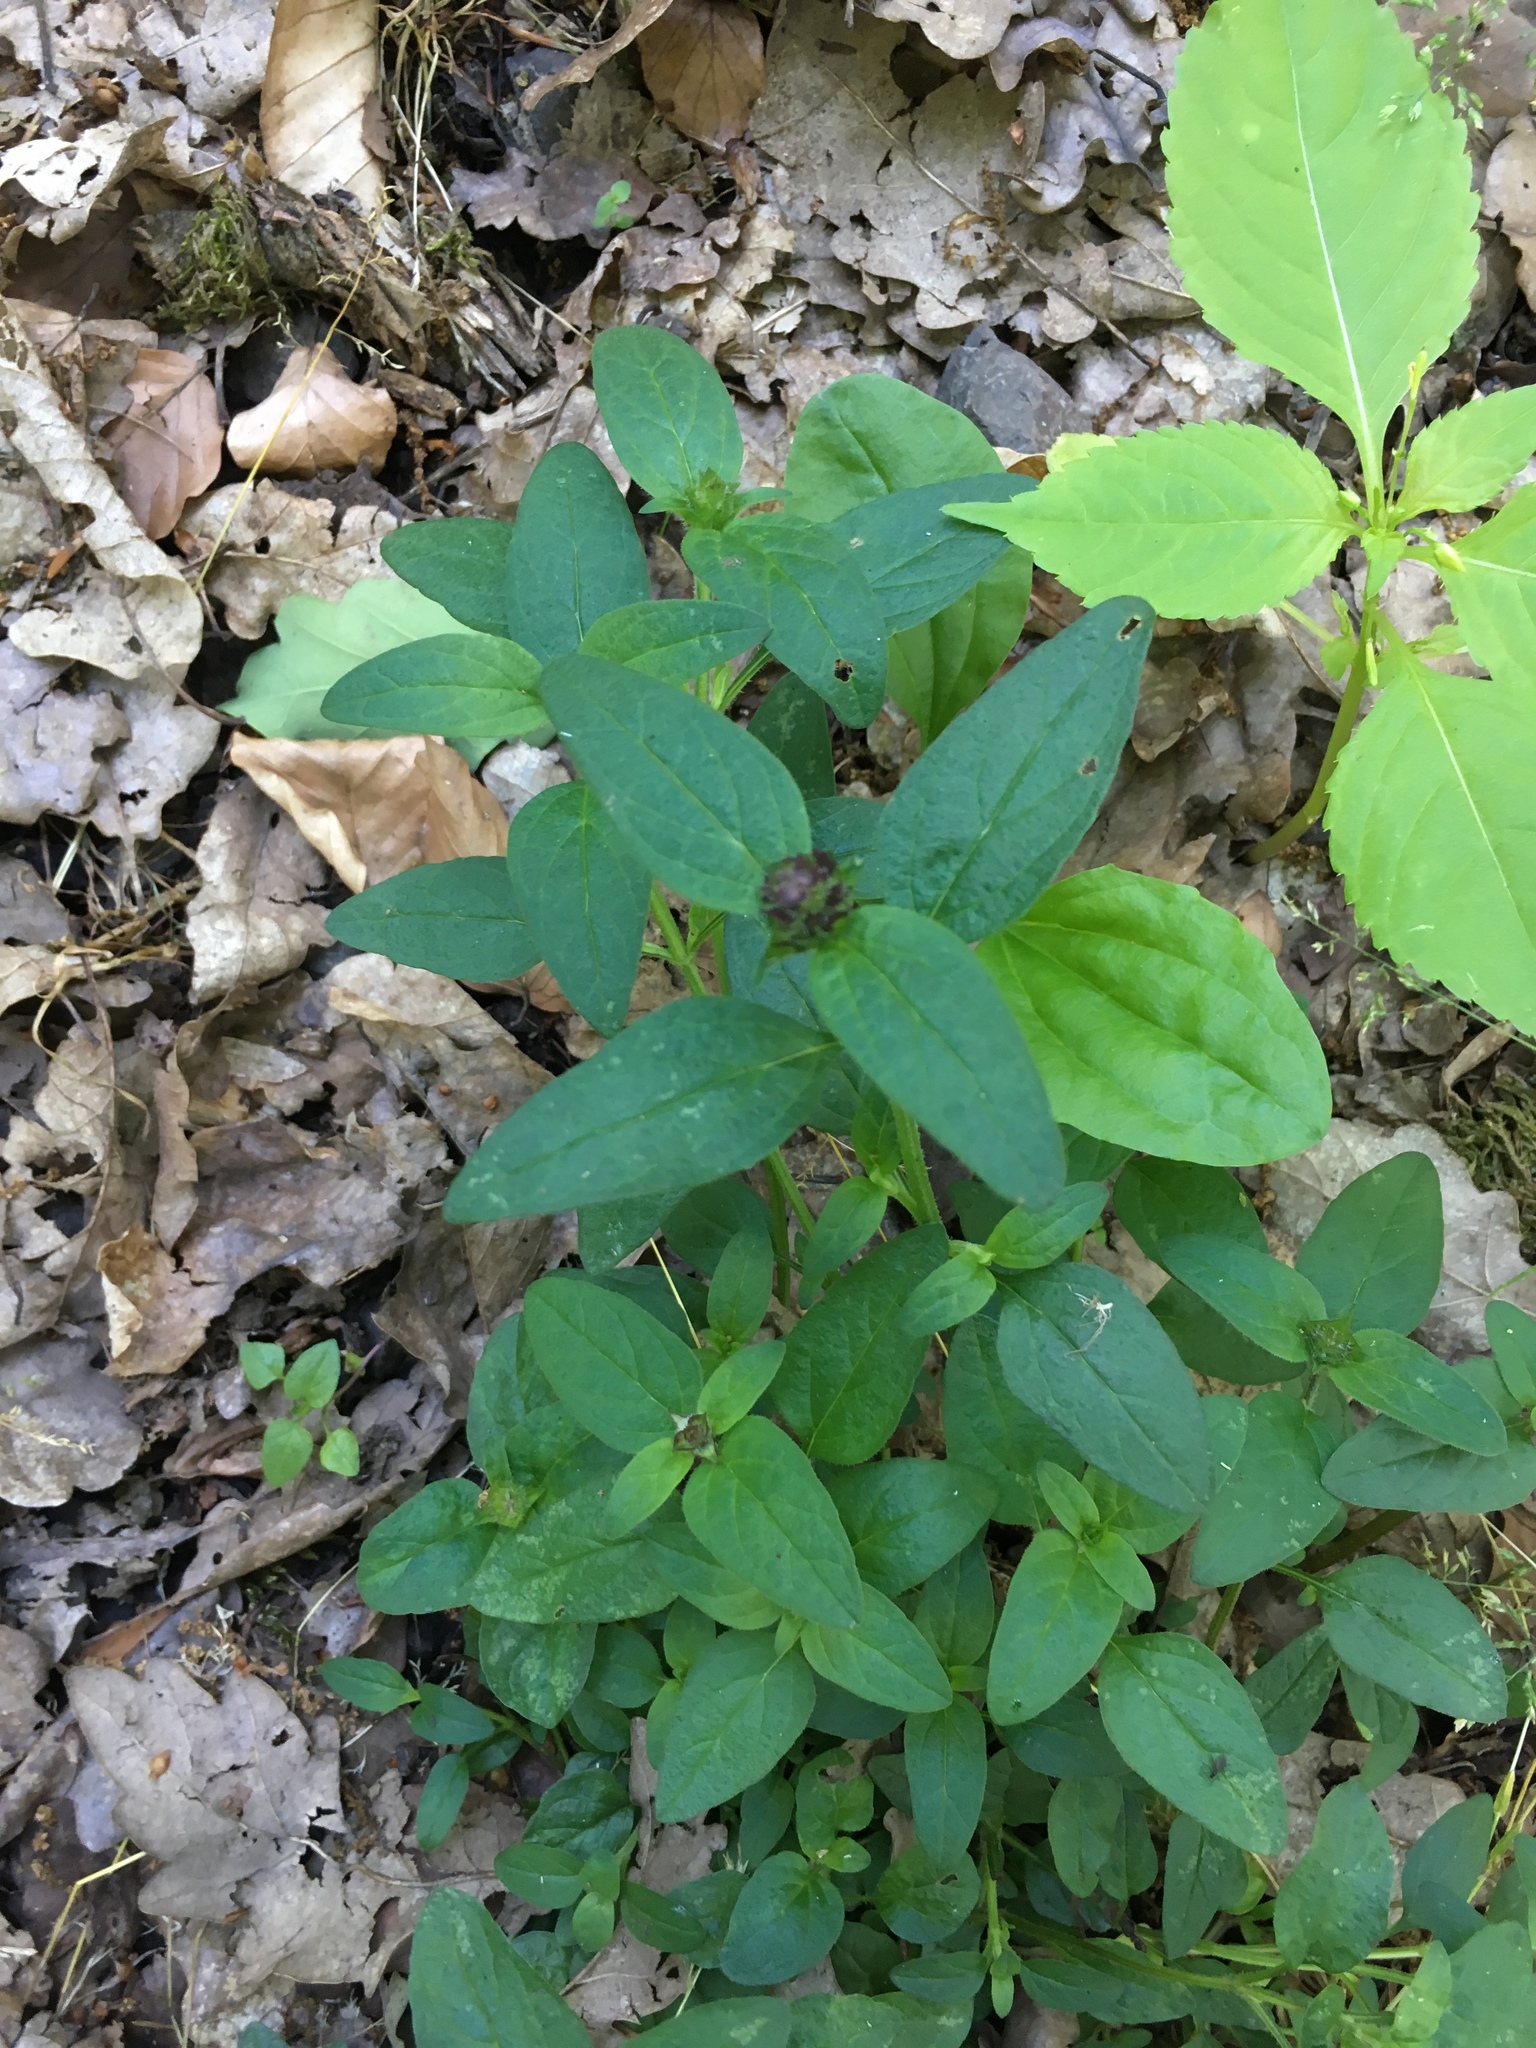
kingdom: Plantae
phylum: Tracheophyta
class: Magnoliopsida
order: Lamiales
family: Lamiaceae
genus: Prunella
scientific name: Prunella vulgaris
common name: Heal-all
